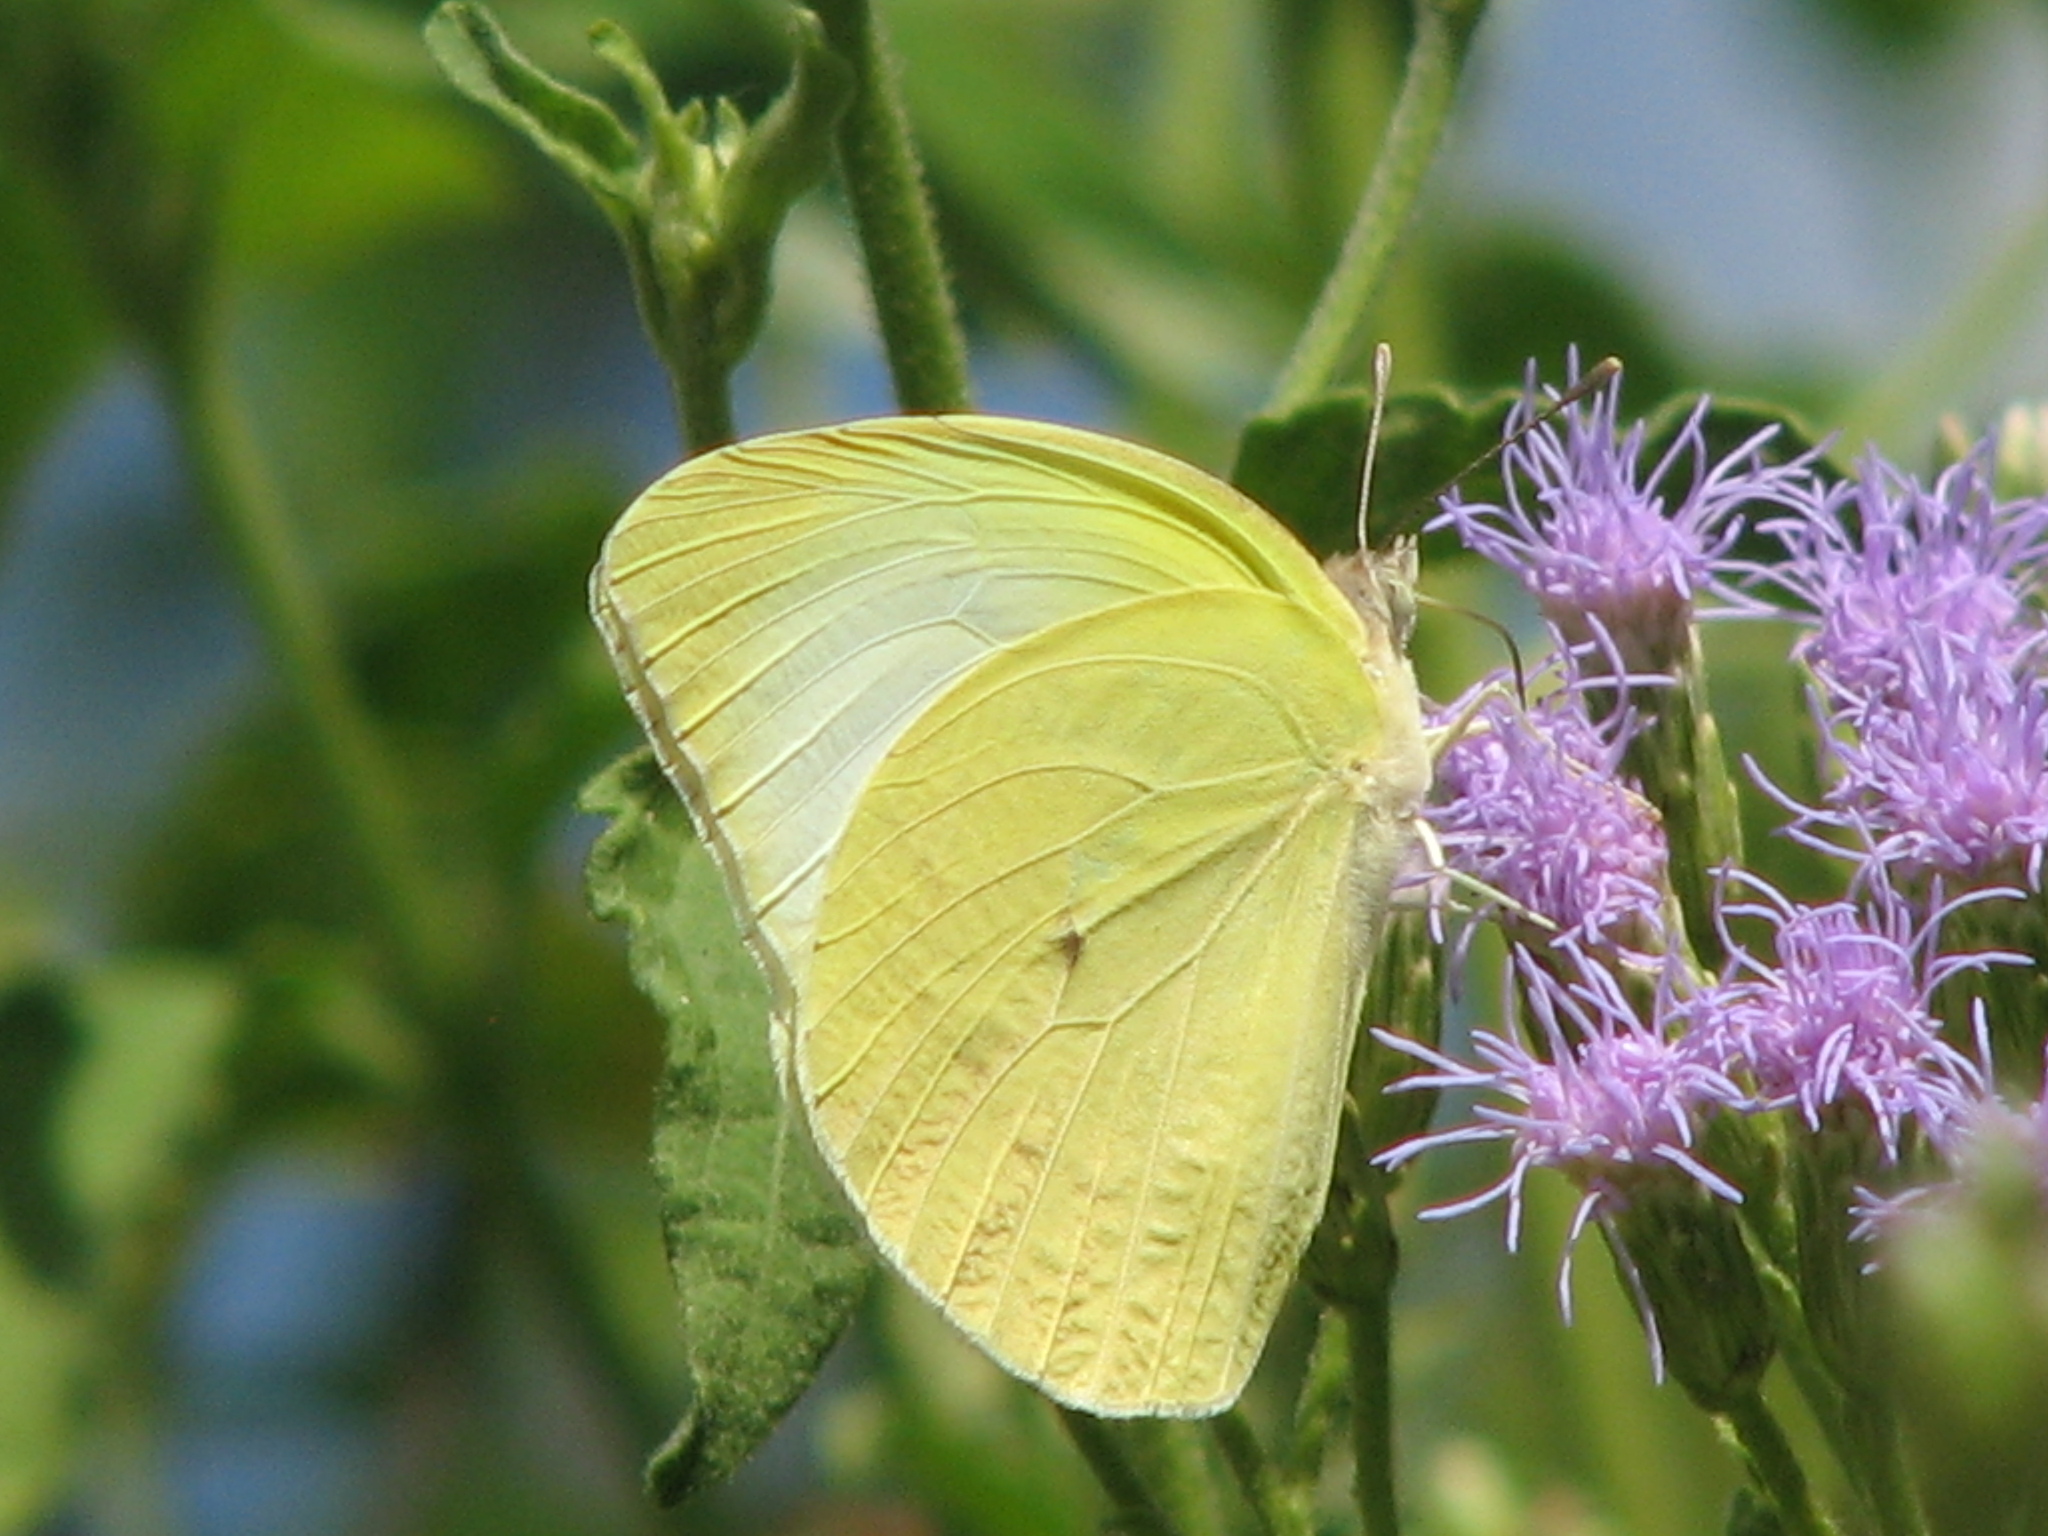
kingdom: Animalia
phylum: Arthropoda
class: Insecta
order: Lepidoptera
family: Pieridae
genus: Kricogonia
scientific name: Kricogonia lyside
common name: Guayacan sulphur,
